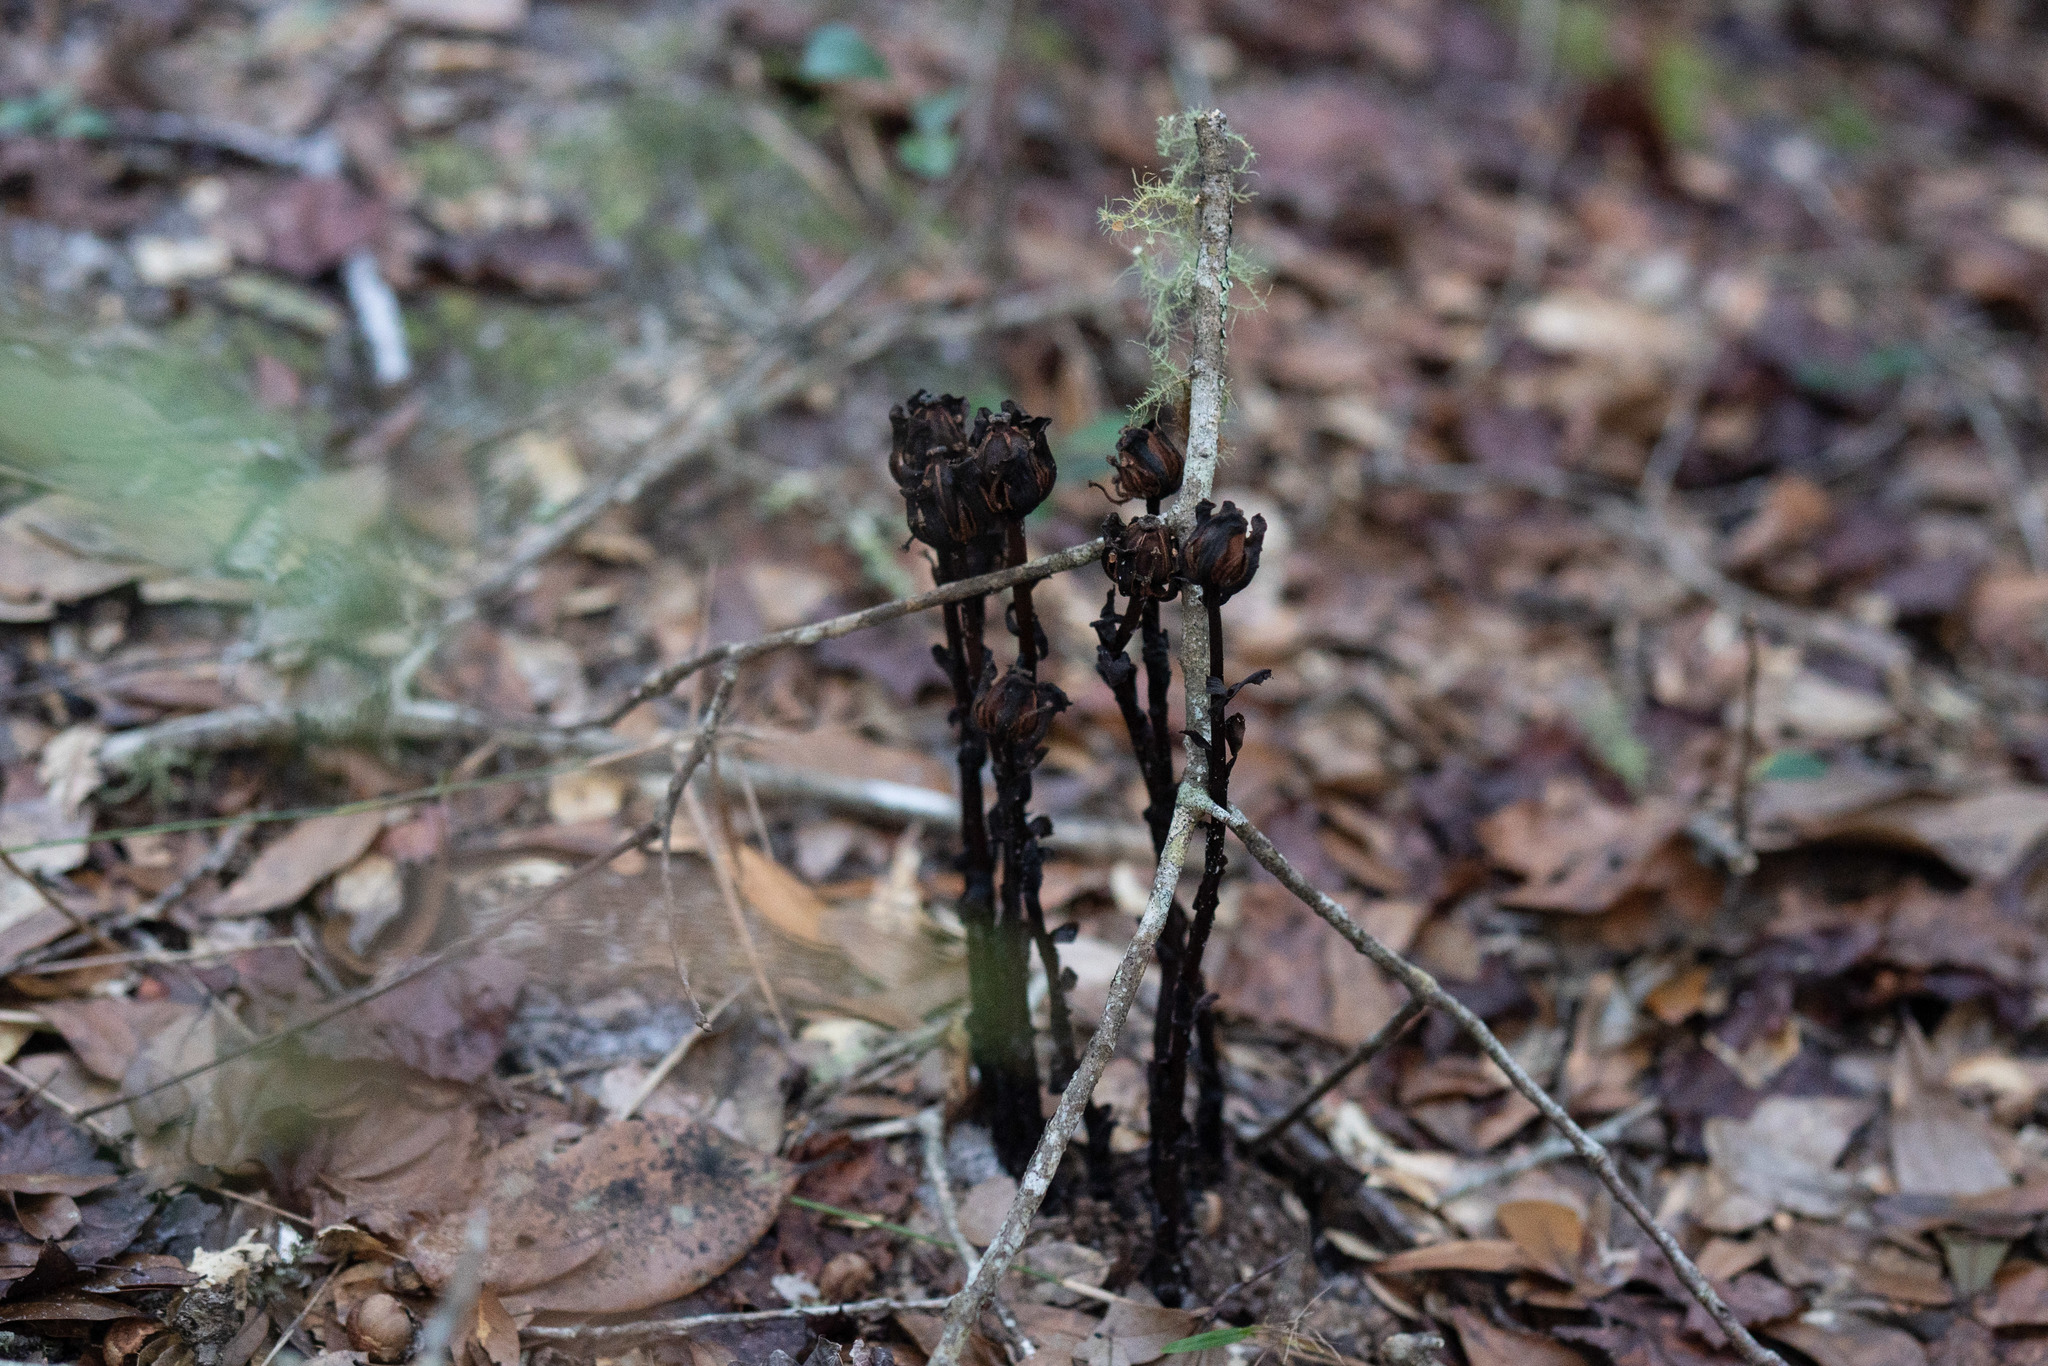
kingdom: Plantae
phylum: Tracheophyta
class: Magnoliopsida
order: Ericales
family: Ericaceae
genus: Monotropa
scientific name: Monotropa uniflora
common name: Convulsion root
